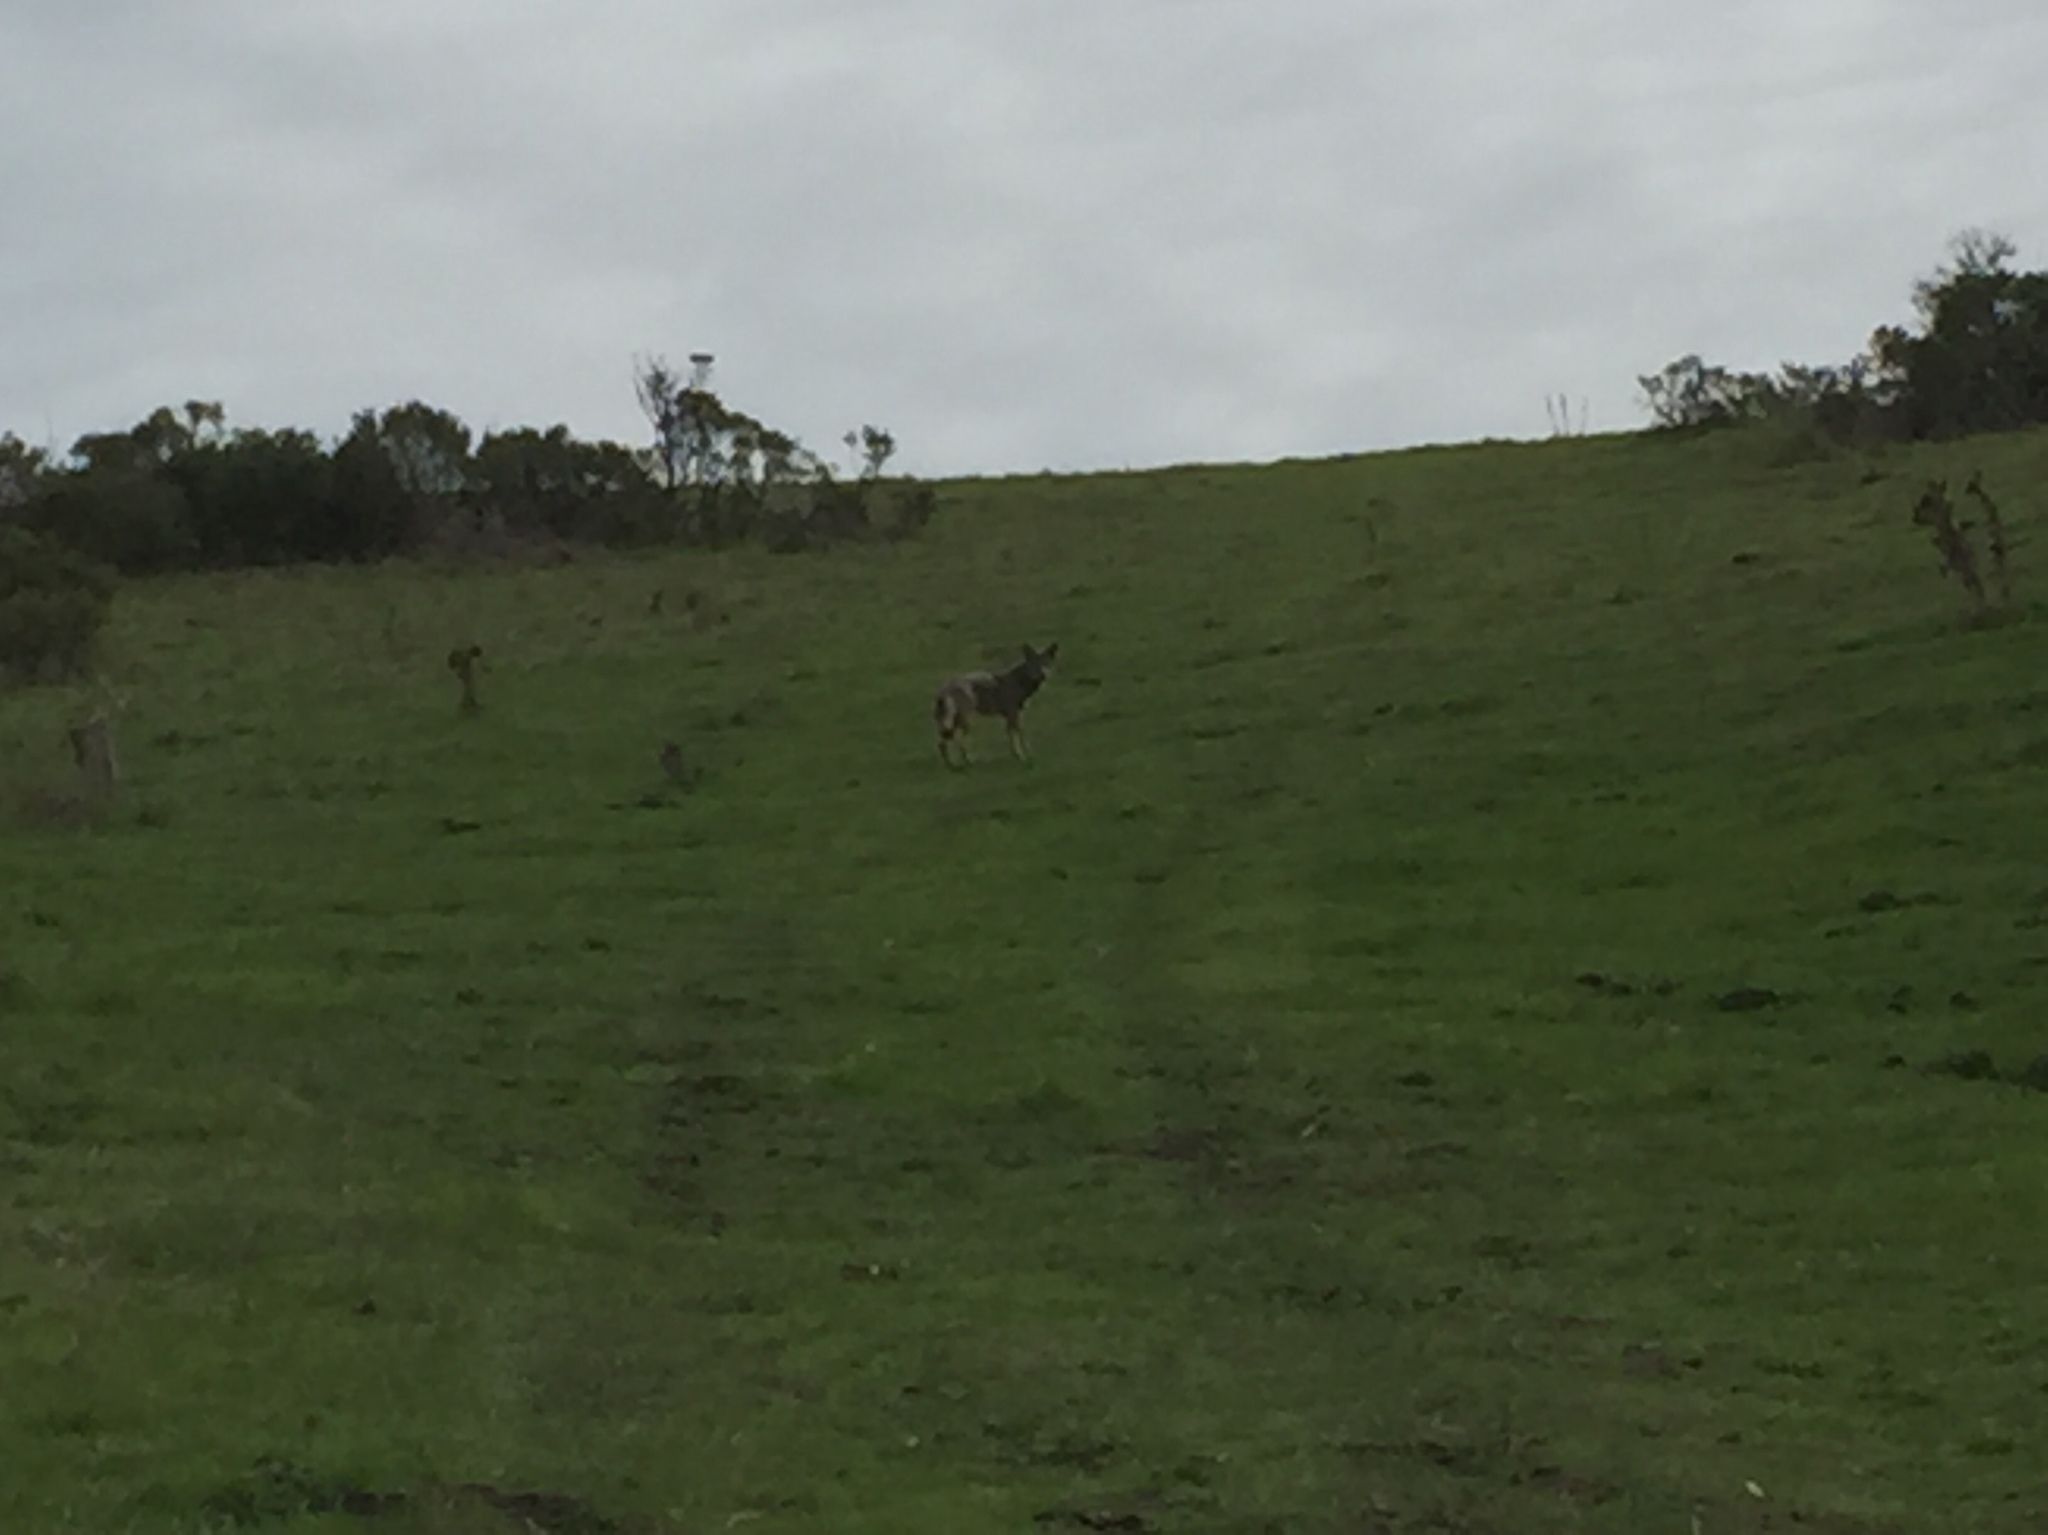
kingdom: Animalia
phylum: Chordata
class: Mammalia
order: Carnivora
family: Canidae
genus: Canis
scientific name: Canis latrans
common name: Coyote
